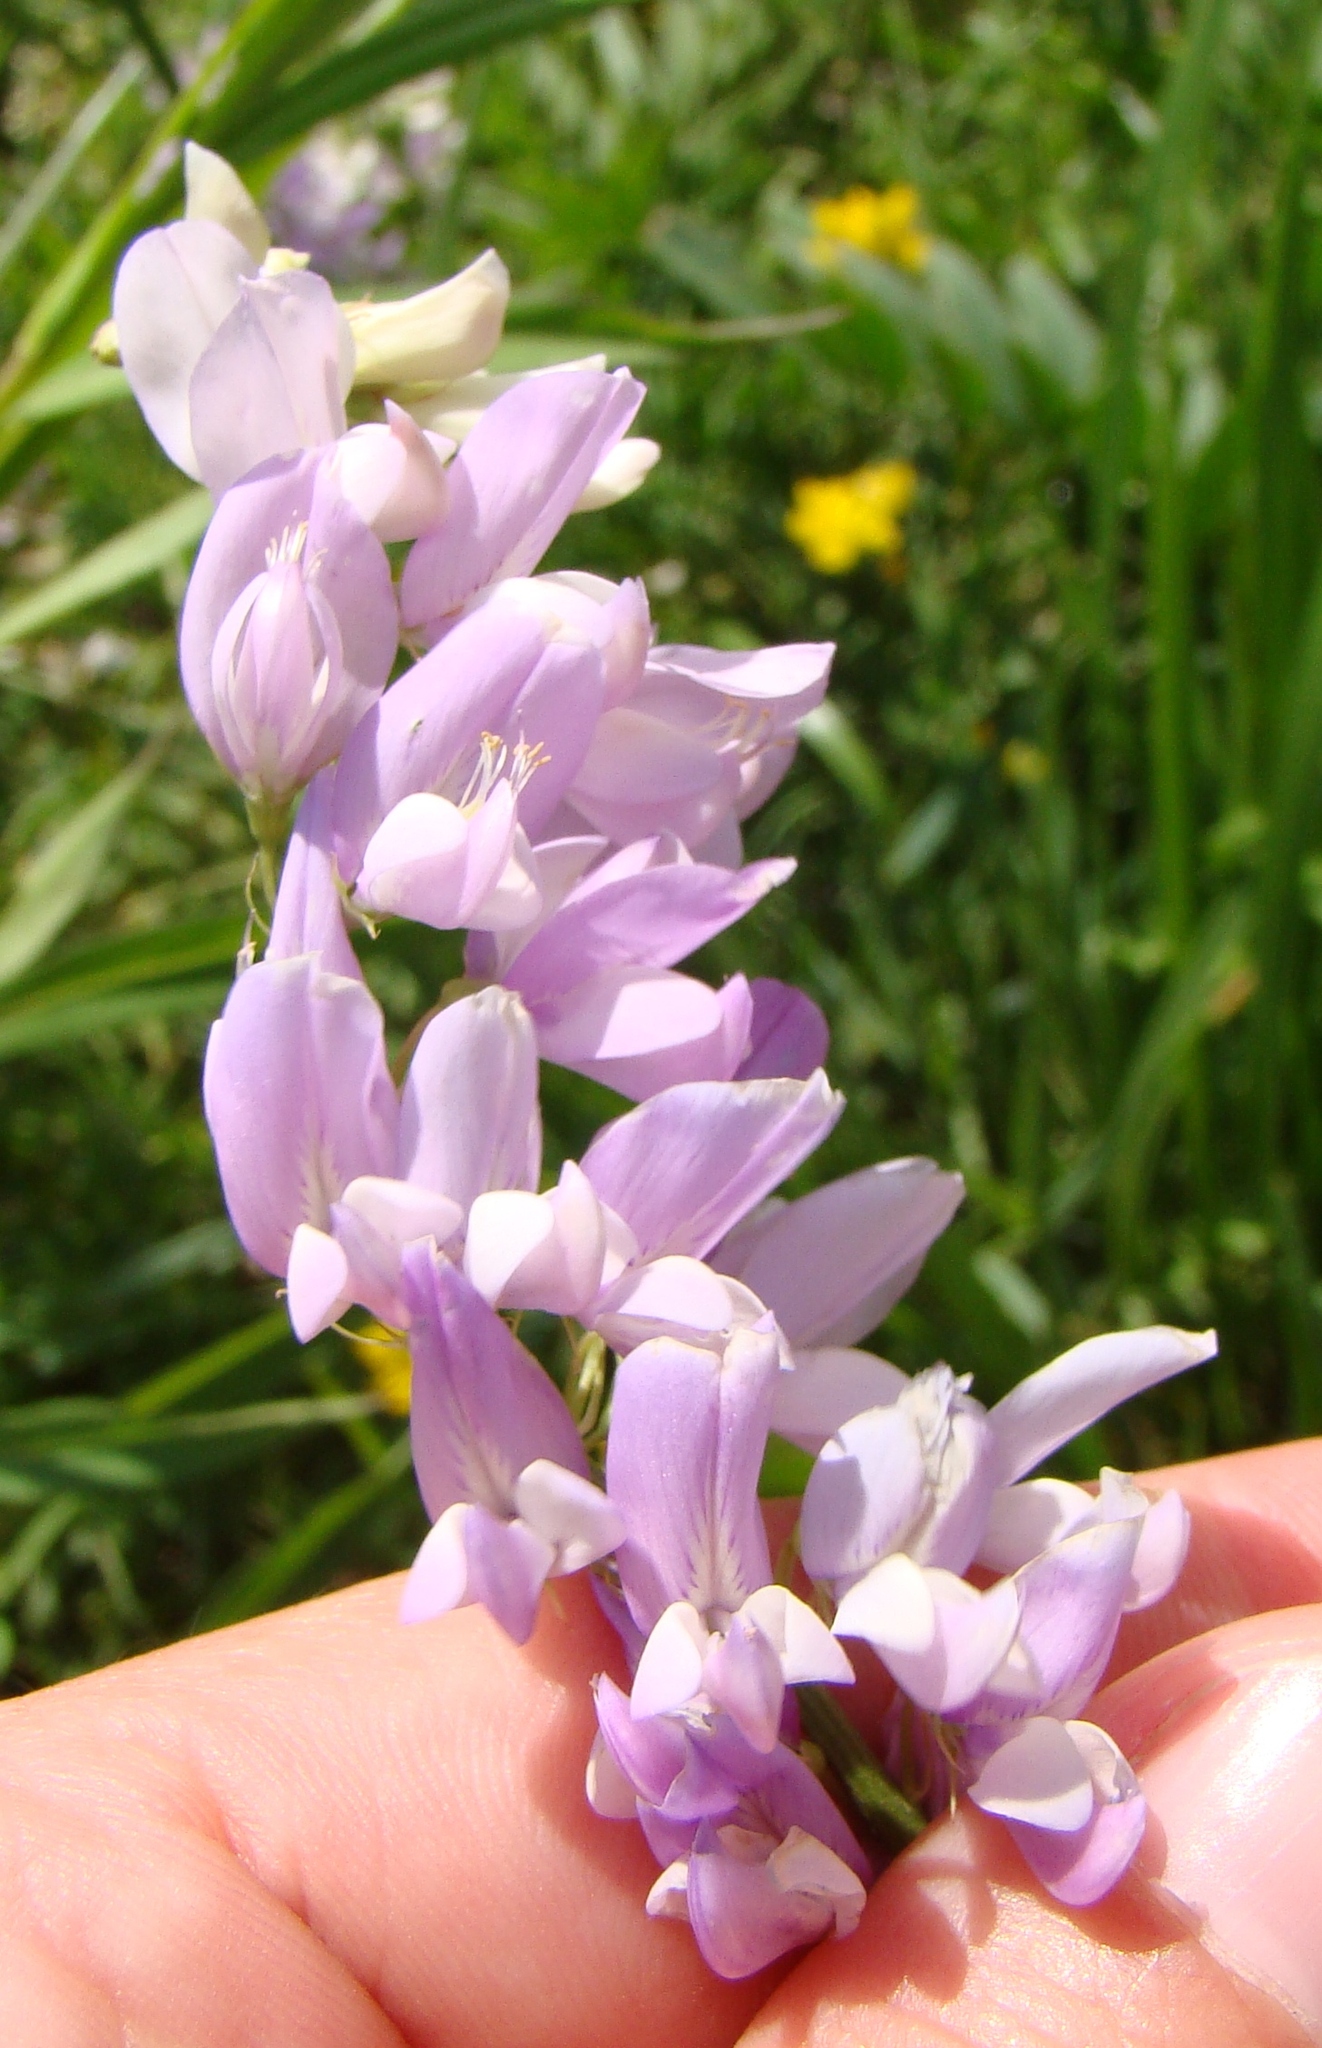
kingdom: Plantae
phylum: Tracheophyta
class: Magnoliopsida
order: Fabales
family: Fabaceae
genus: Galega
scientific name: Galega officinalis
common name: Goat's-rue
